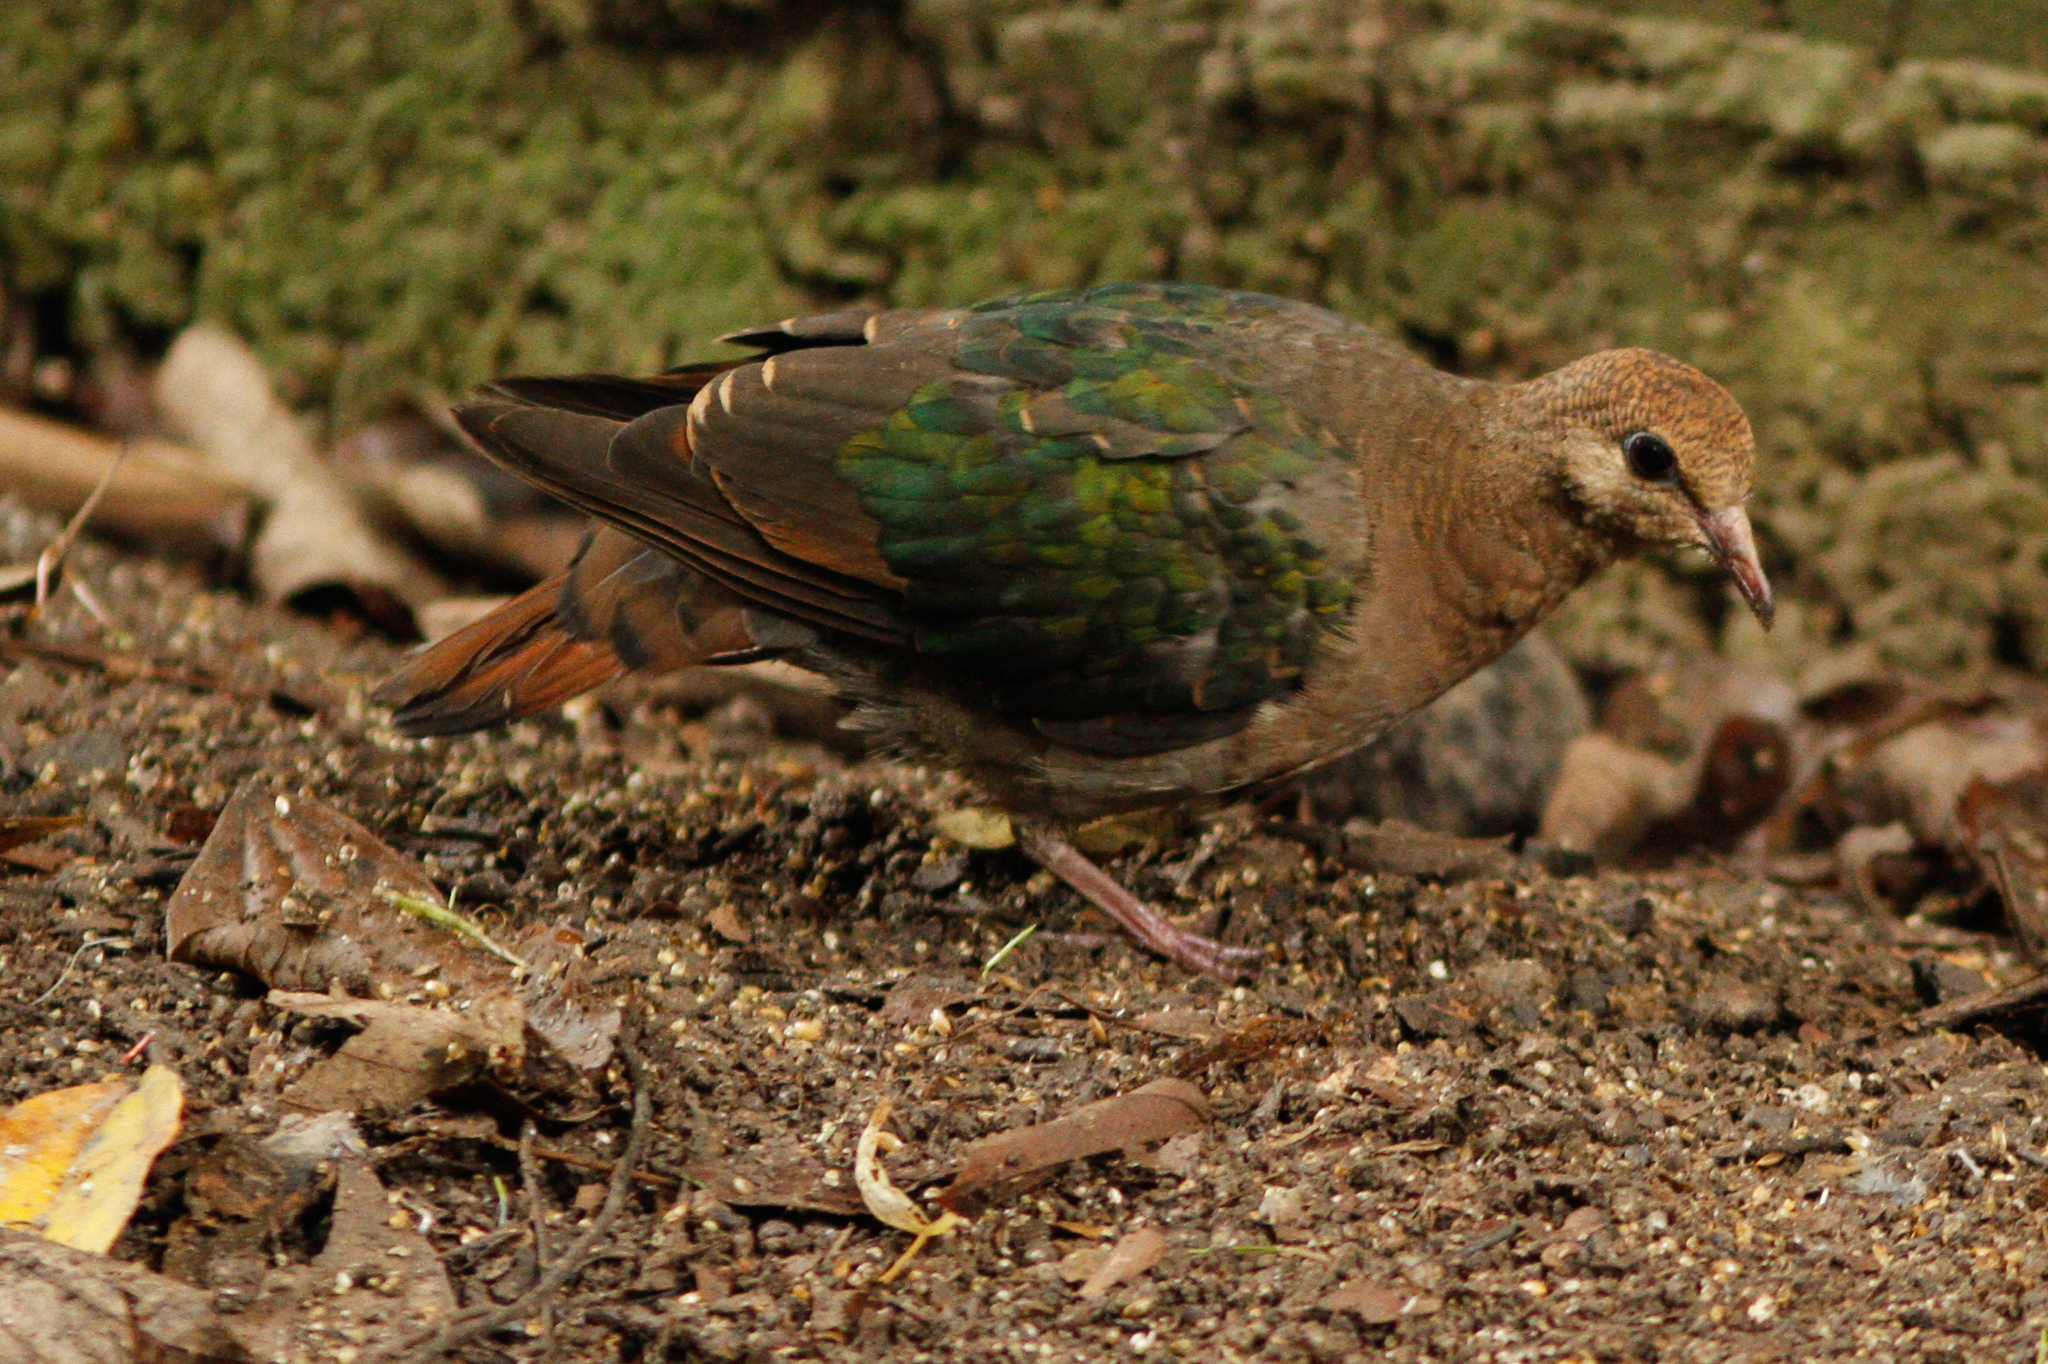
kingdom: Animalia
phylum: Chordata
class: Aves
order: Columbiformes
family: Columbidae
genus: Chalcophaps
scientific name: Chalcophaps longirostris
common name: Pacific emerald dove
